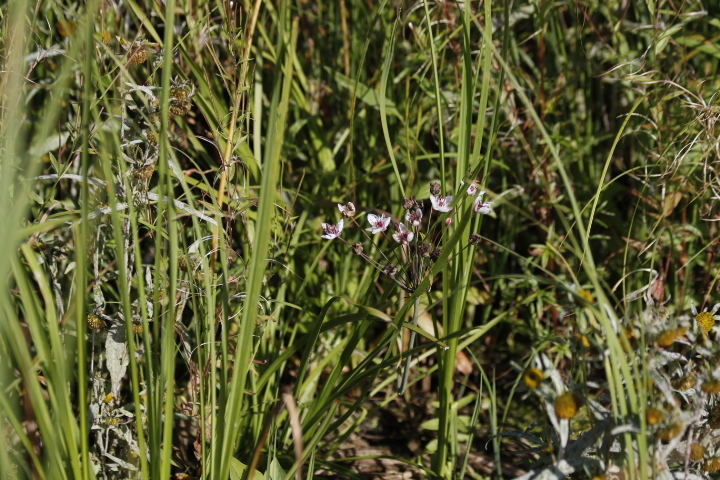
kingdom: Plantae
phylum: Tracheophyta
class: Liliopsida
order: Alismatales
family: Butomaceae
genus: Butomus
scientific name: Butomus umbellatus
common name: Flowering-rush
